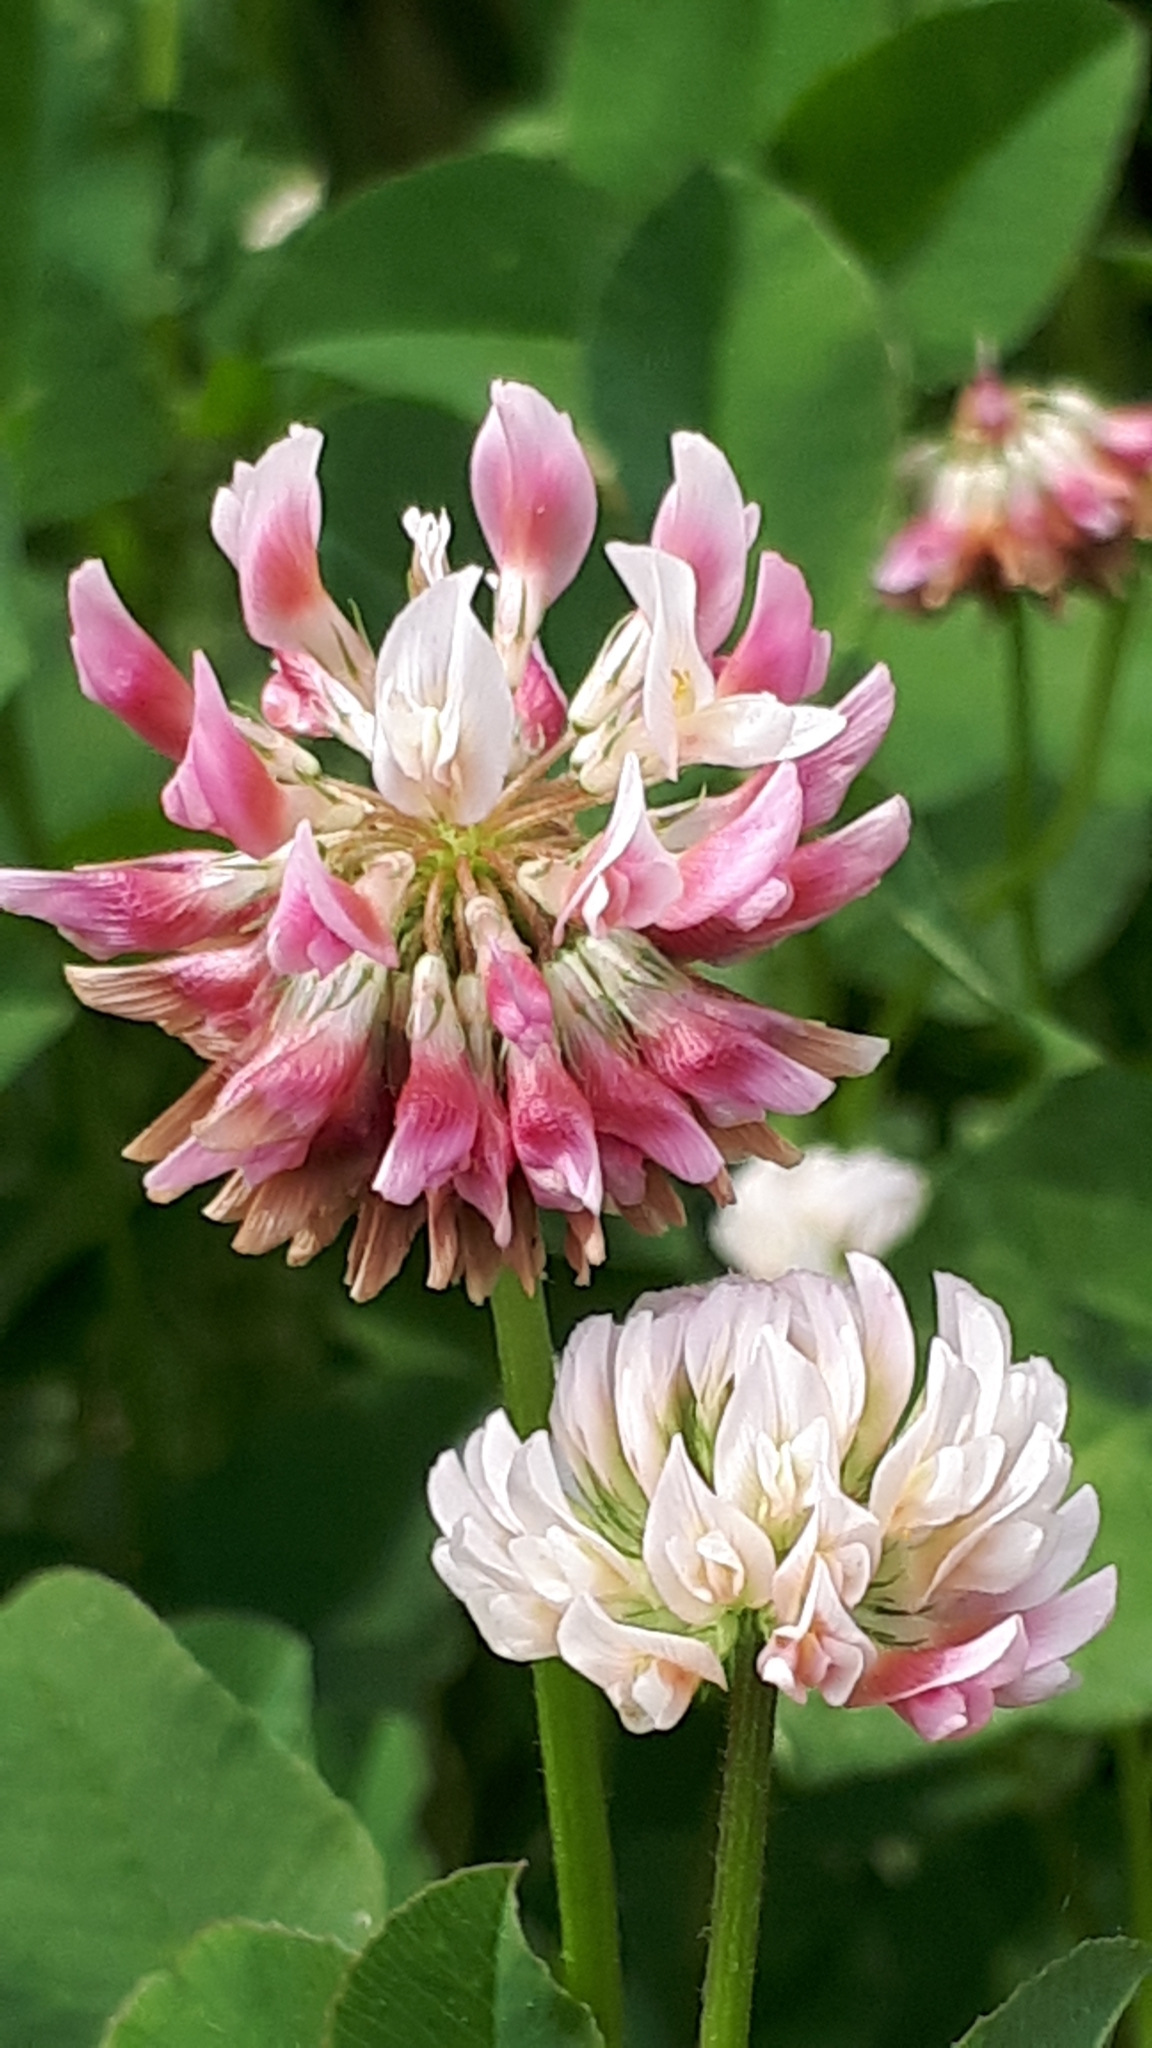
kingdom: Plantae
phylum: Tracheophyta
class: Magnoliopsida
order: Fabales
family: Fabaceae
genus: Trifolium
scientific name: Trifolium hybridum
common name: Alsike clover
